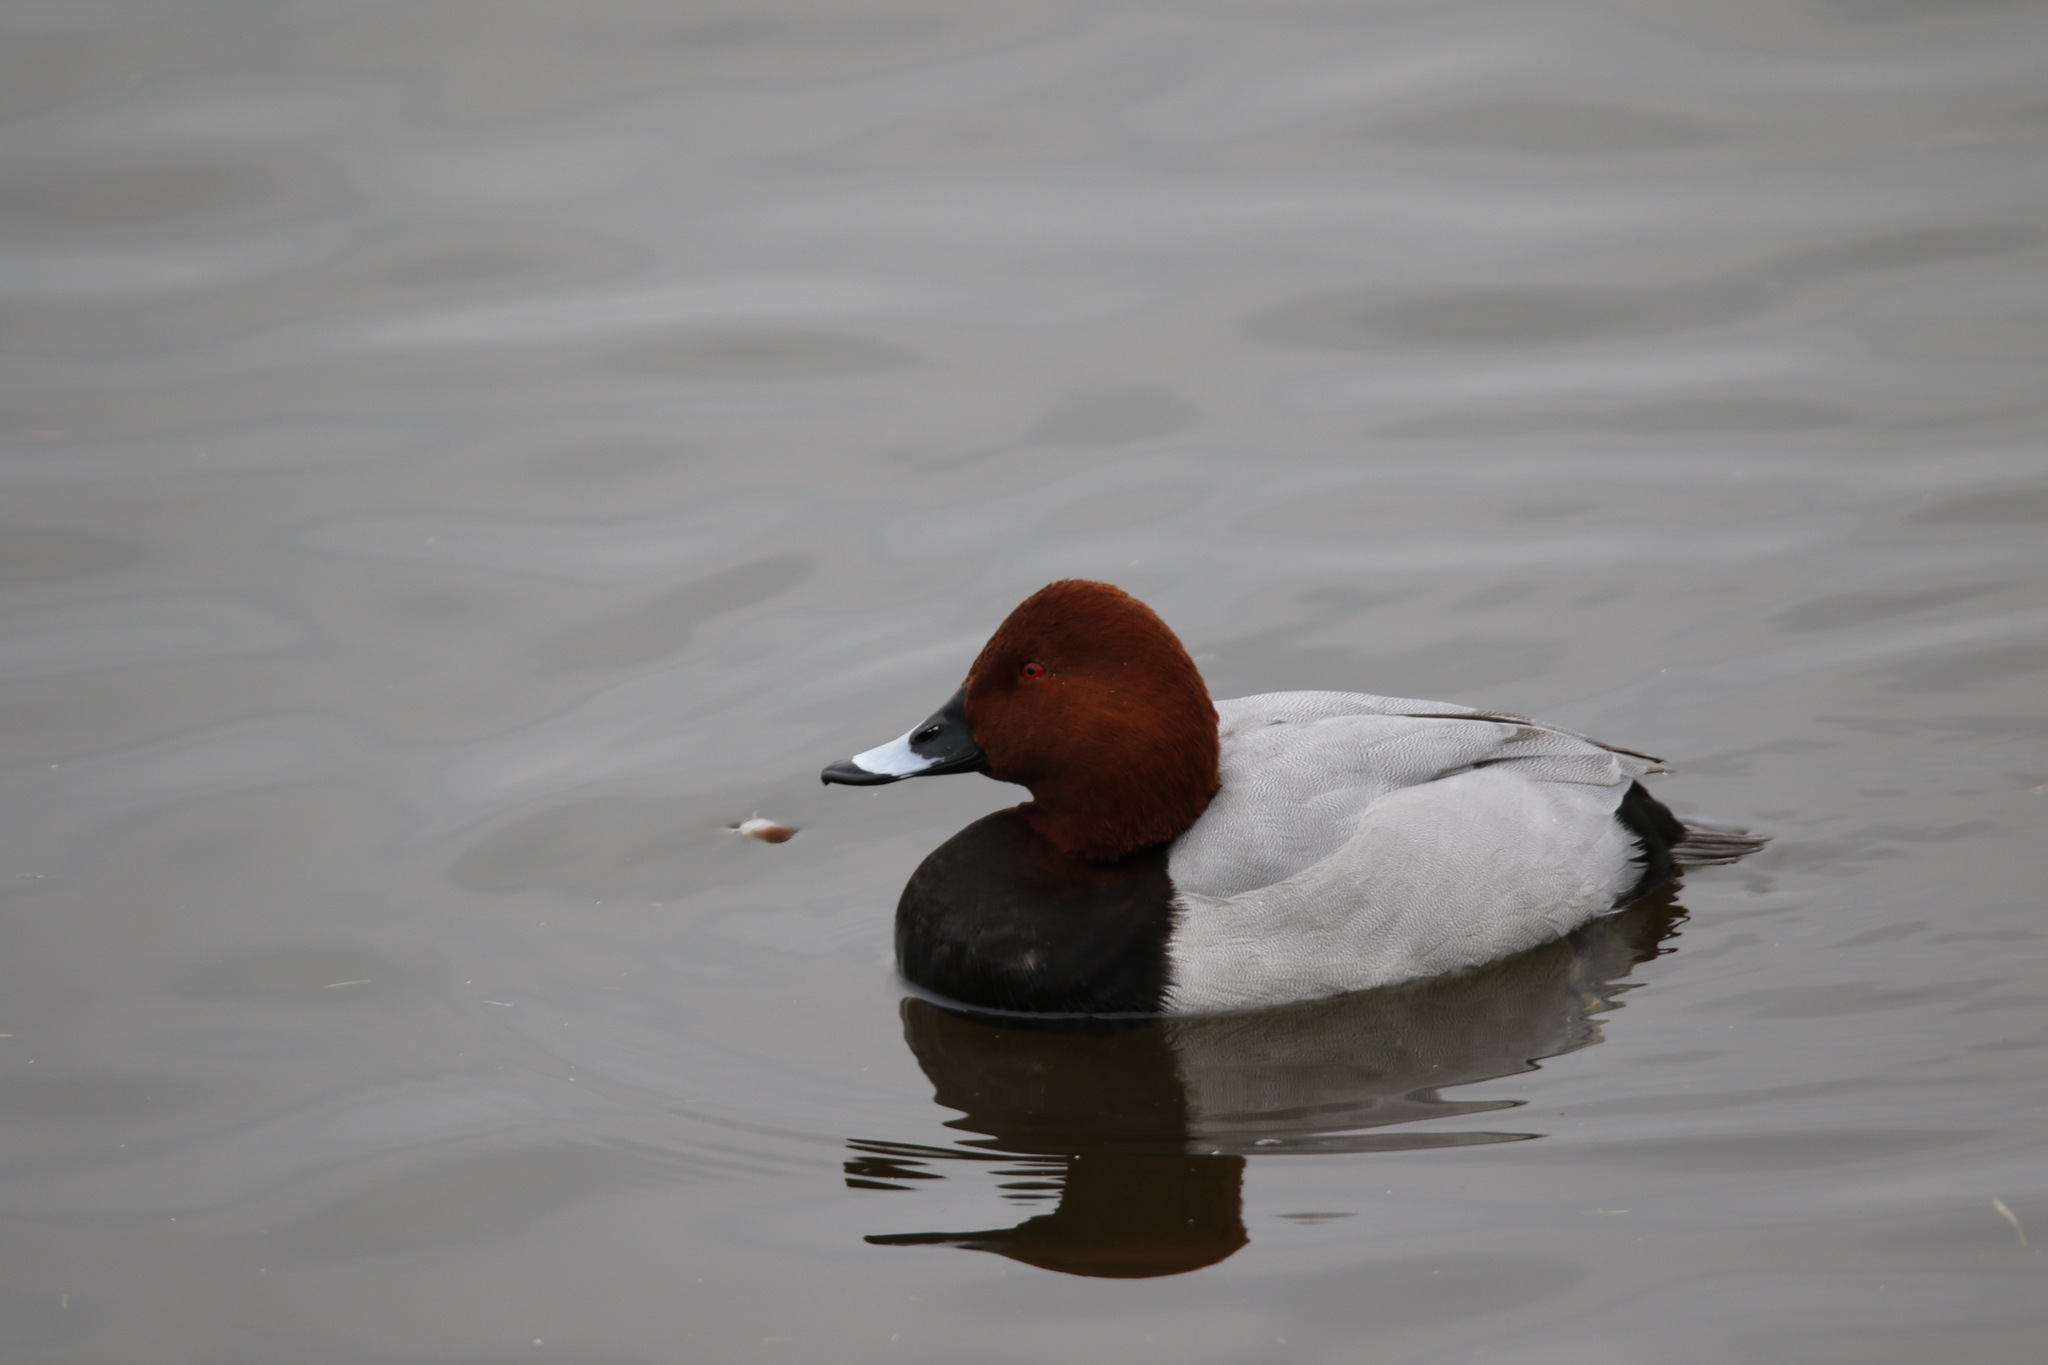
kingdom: Animalia
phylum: Chordata
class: Aves
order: Anseriformes
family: Anatidae
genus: Aythya
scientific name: Aythya ferina
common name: Common pochard
